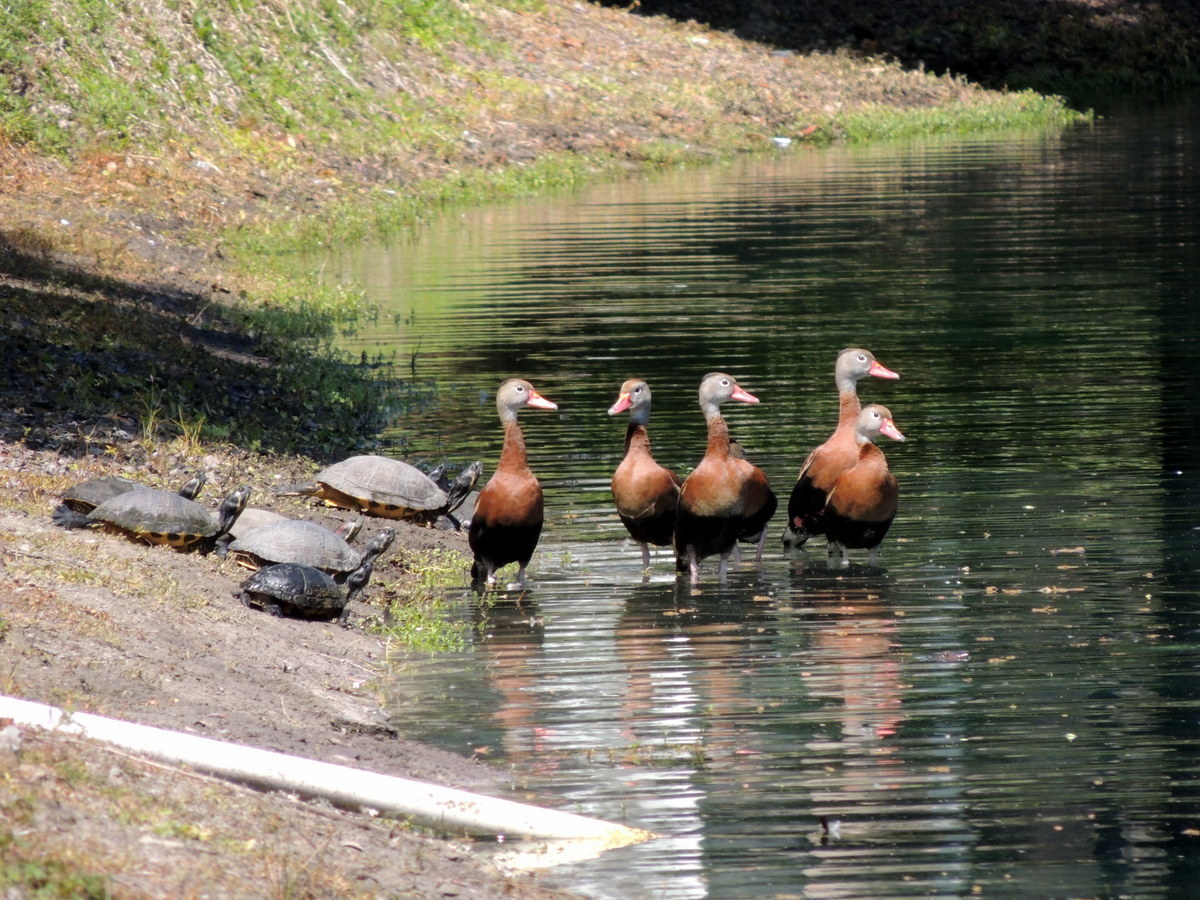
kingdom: Animalia
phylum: Chordata
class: Aves
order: Anseriformes
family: Anatidae
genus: Dendrocygna
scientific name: Dendrocygna autumnalis
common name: Black-bellied whistling duck
